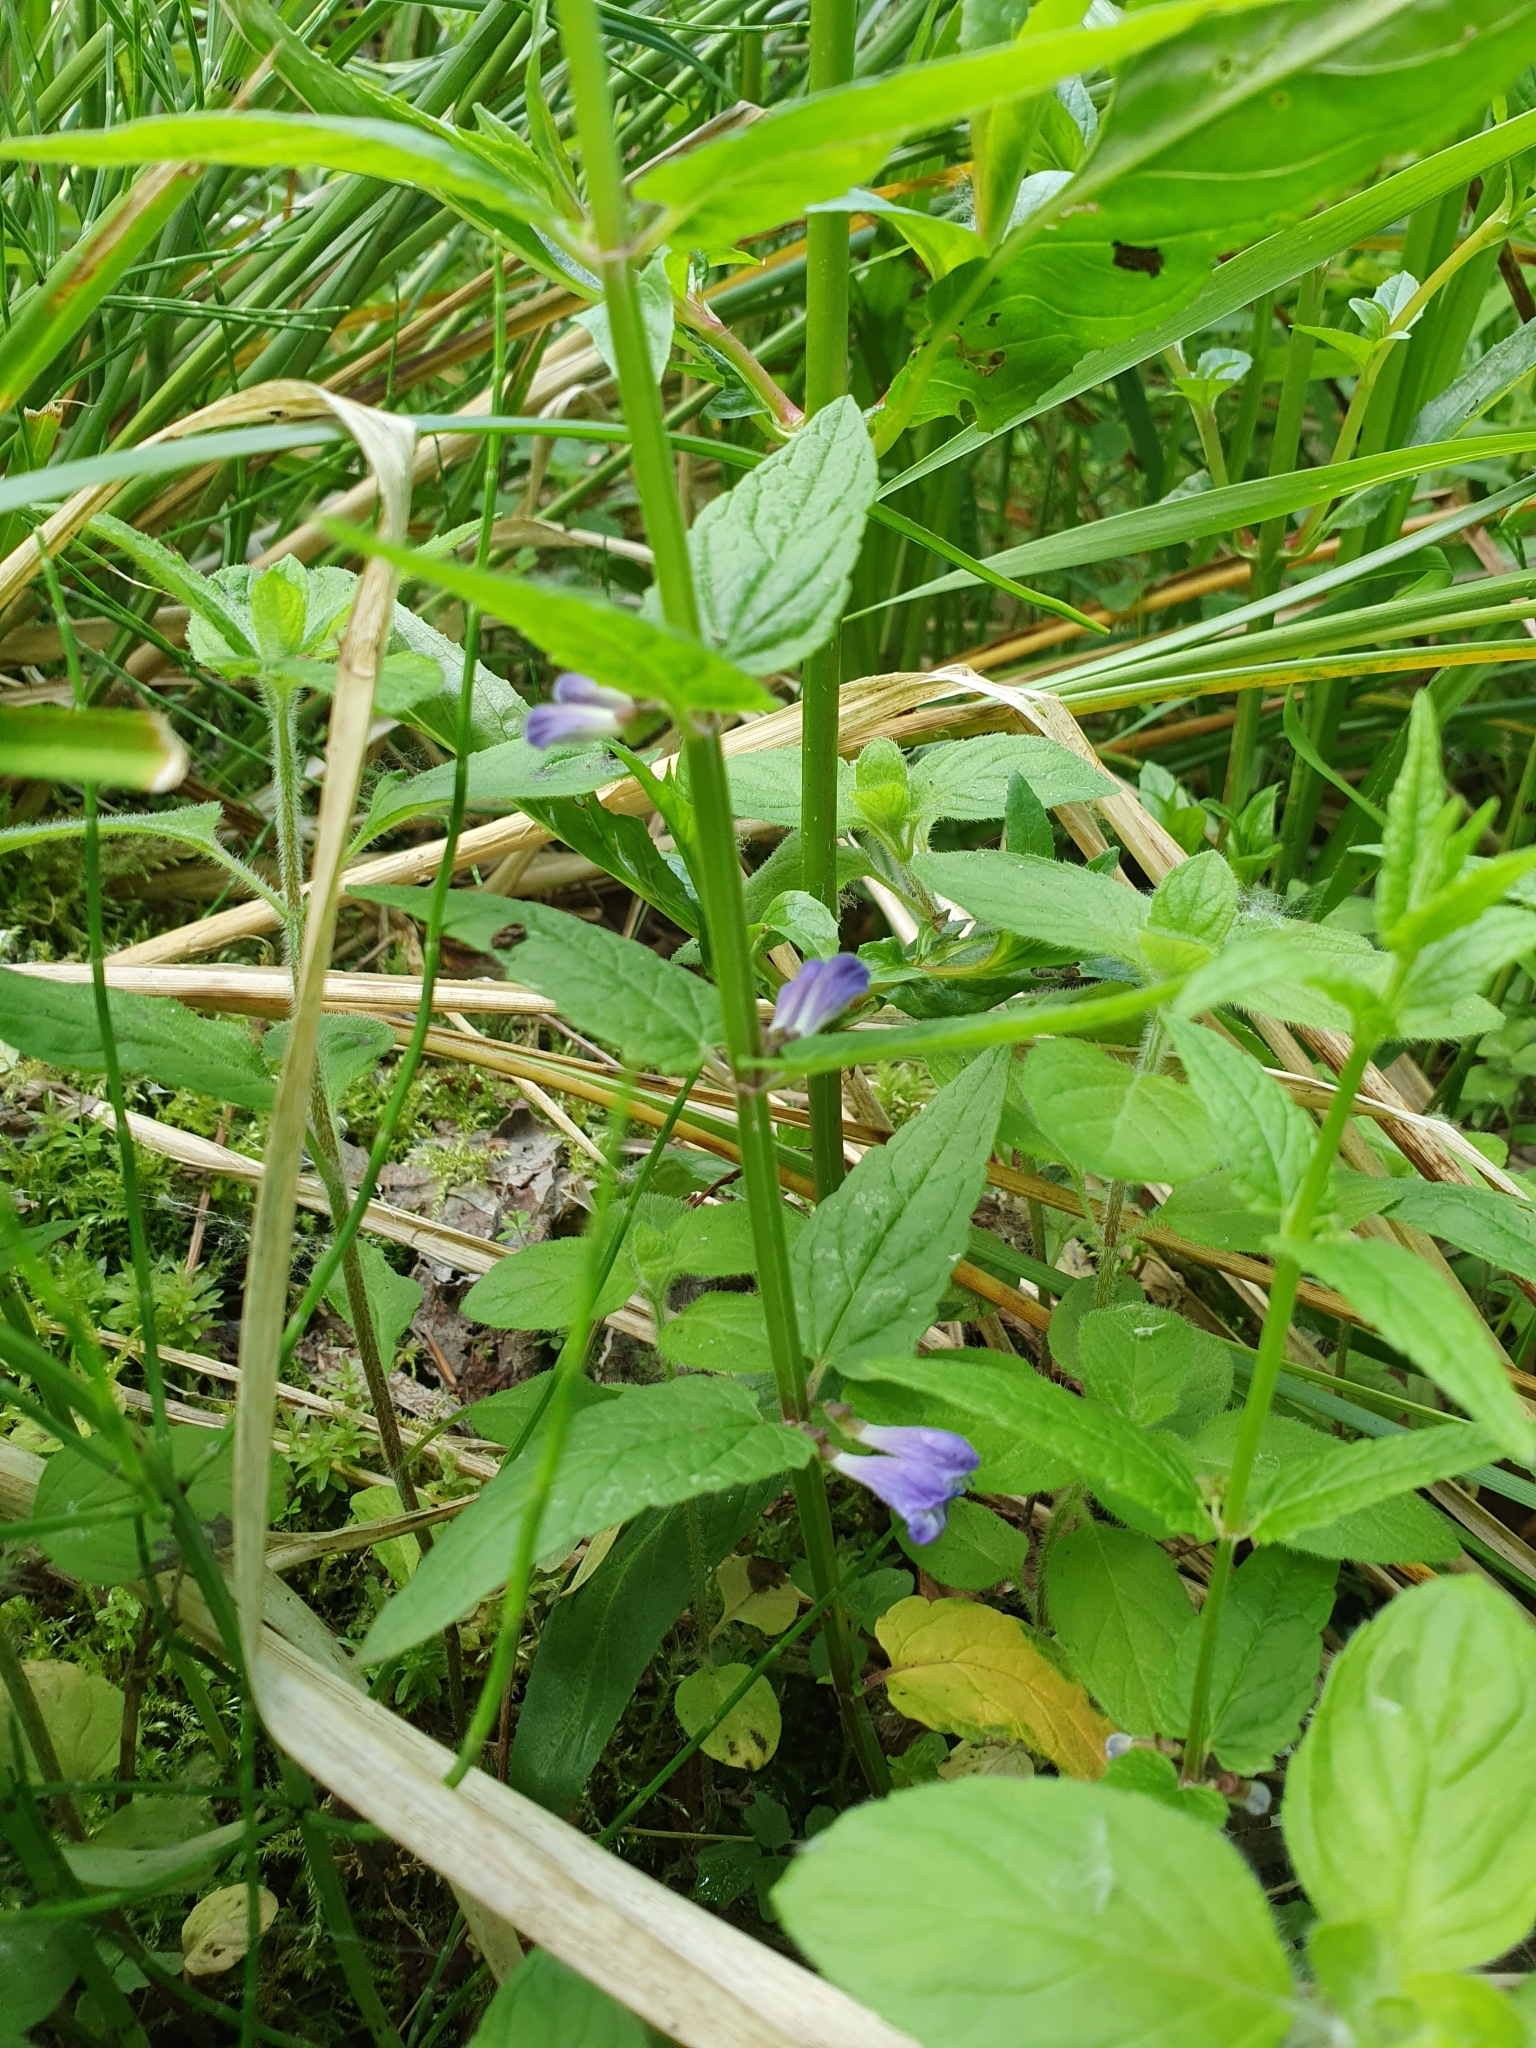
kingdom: Plantae
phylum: Tracheophyta
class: Magnoliopsida
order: Lamiales
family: Lamiaceae
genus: Scutellaria
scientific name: Scutellaria galericulata
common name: Skullcap
